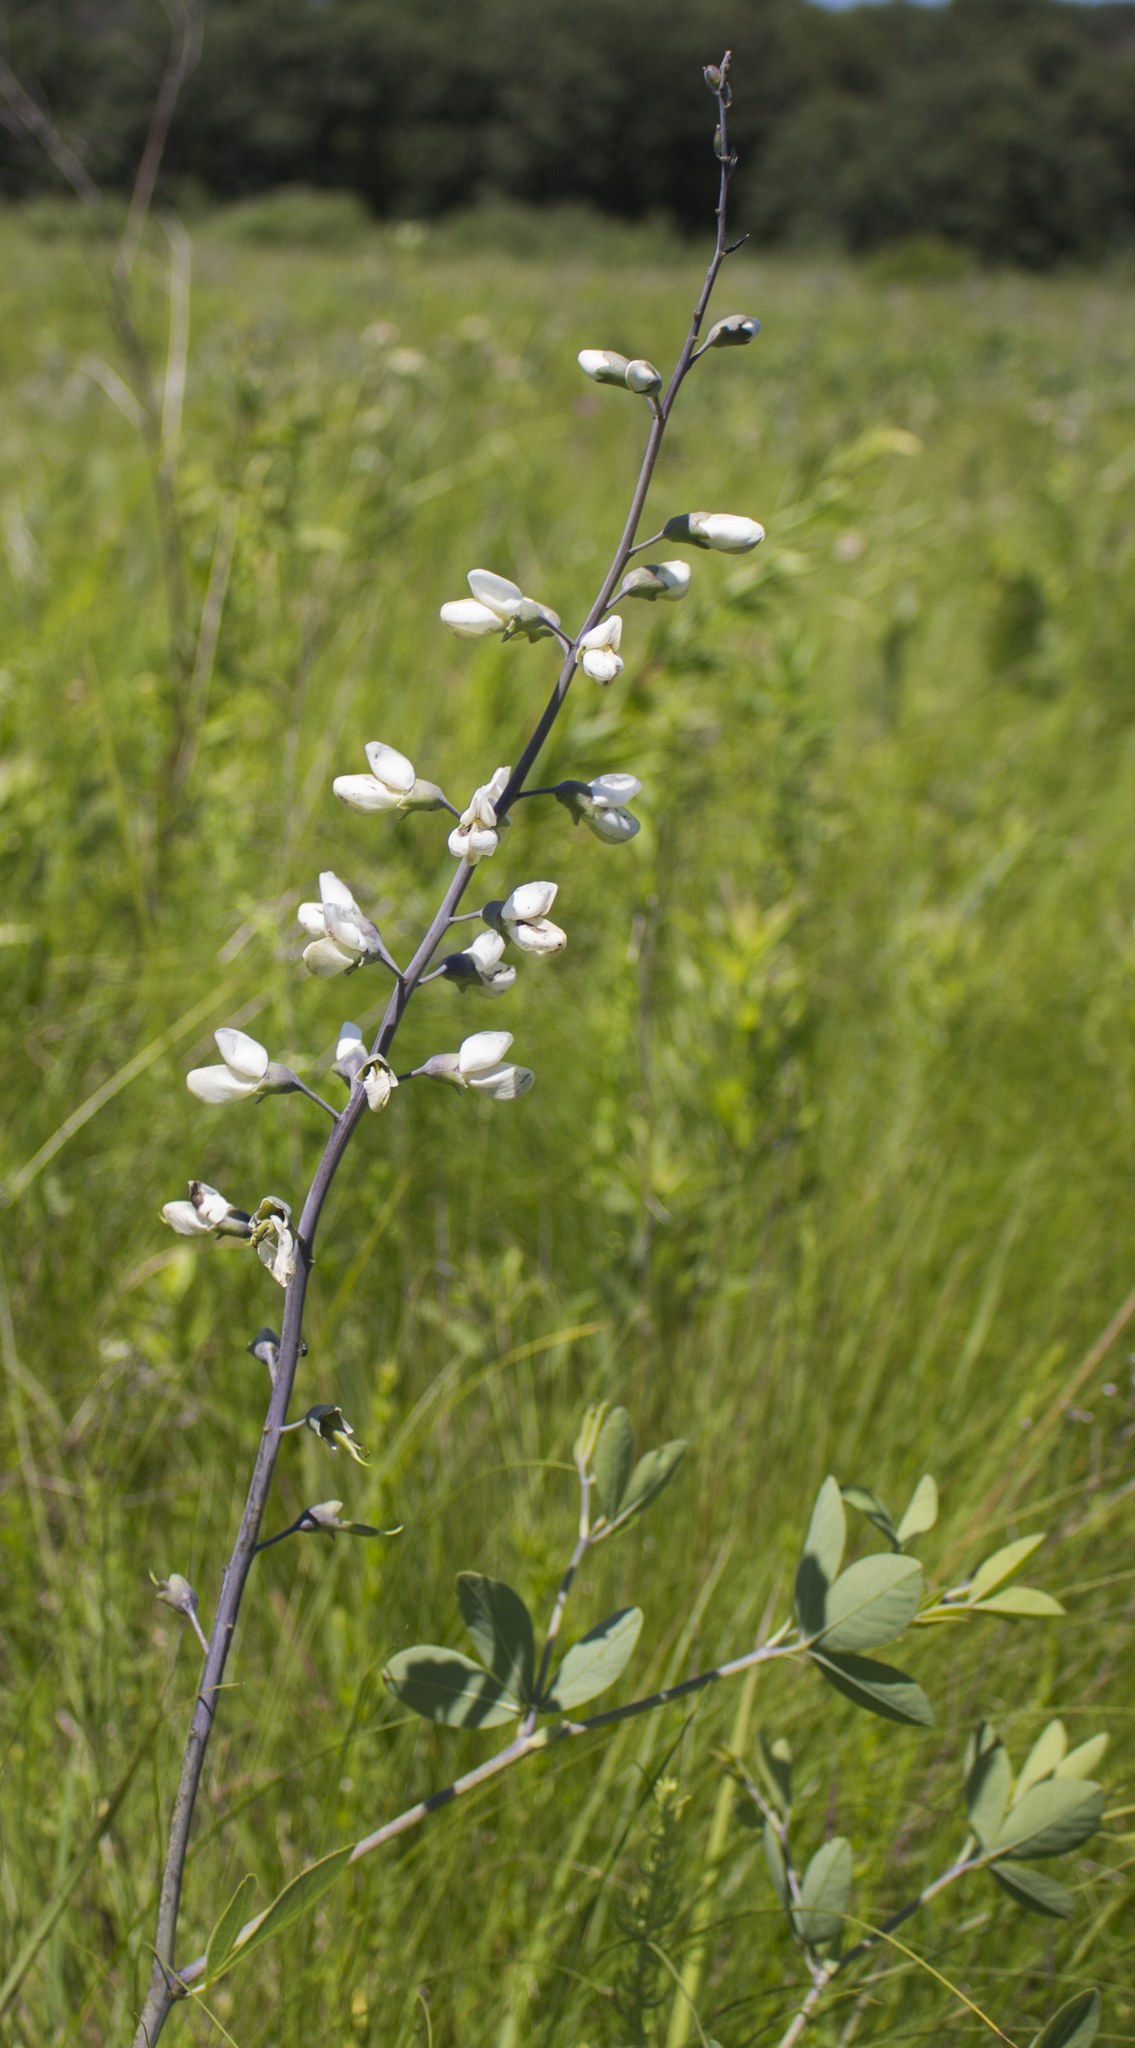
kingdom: Plantae
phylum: Tracheophyta
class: Magnoliopsida
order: Fabales
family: Fabaceae
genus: Baptisia
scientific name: Baptisia alba
